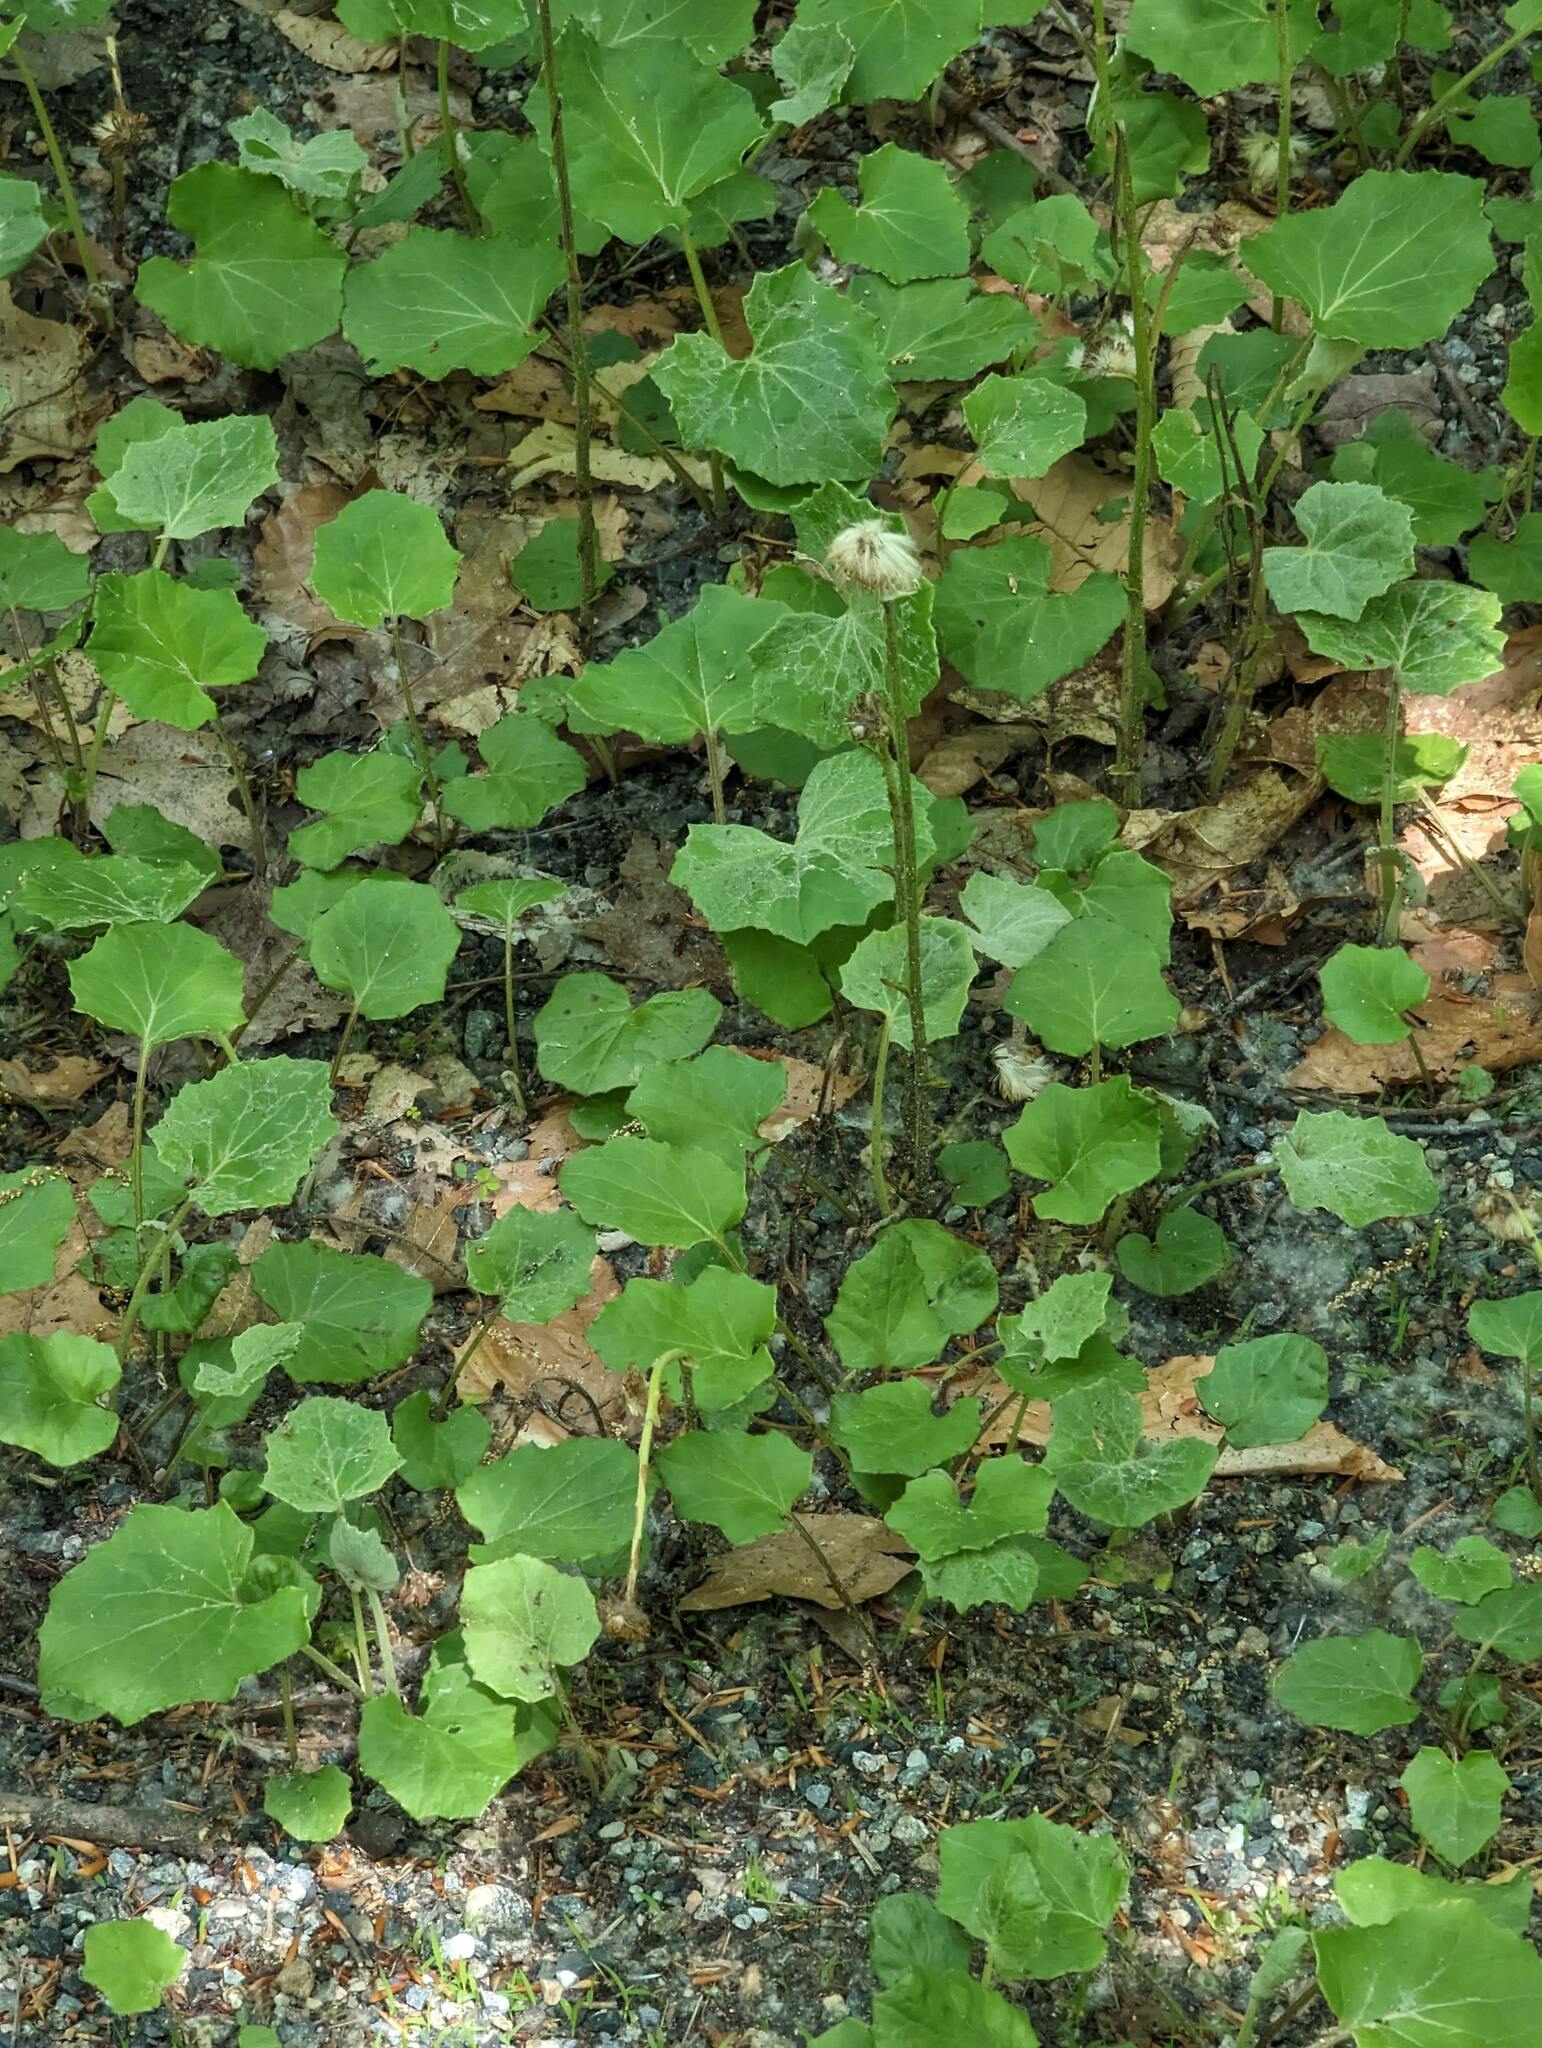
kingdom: Plantae
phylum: Tracheophyta
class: Magnoliopsida
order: Asterales
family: Asteraceae
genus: Tussilago
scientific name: Tussilago farfara
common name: Coltsfoot
